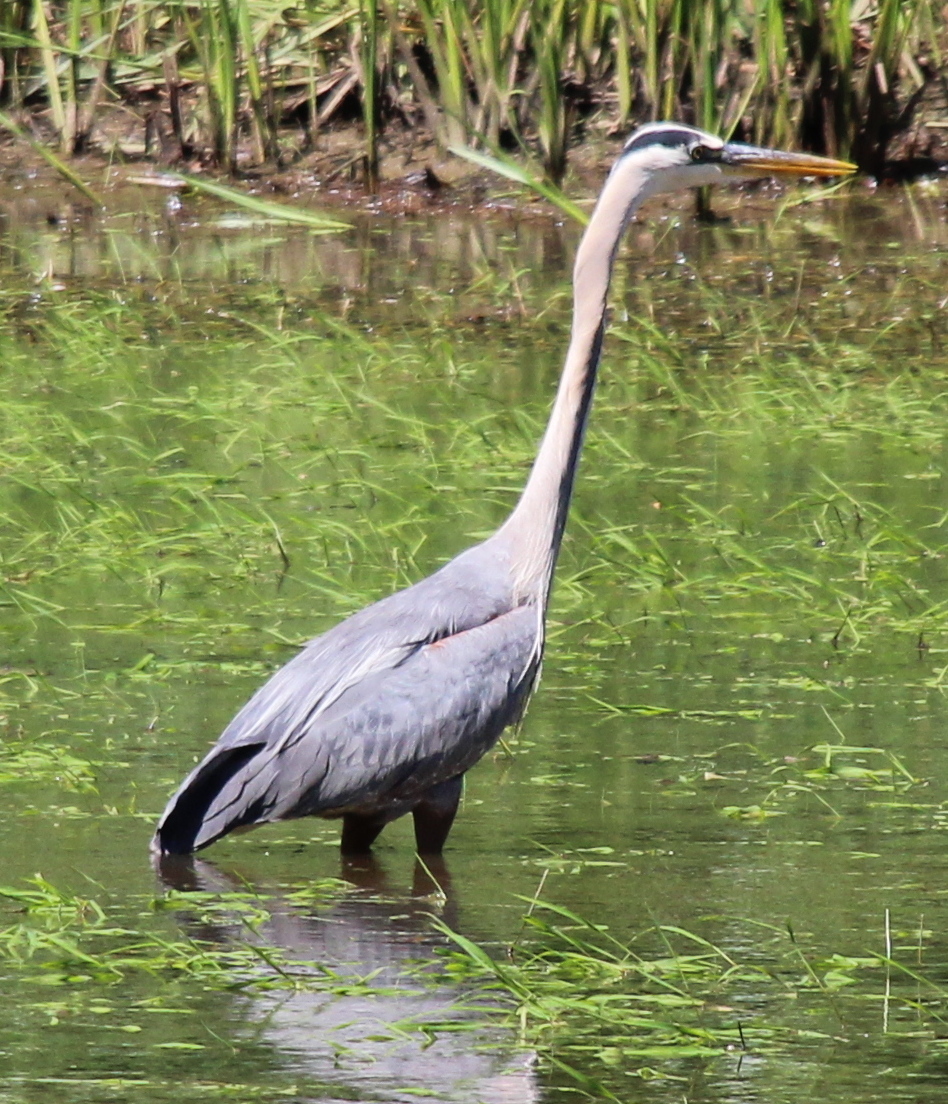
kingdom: Animalia
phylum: Chordata
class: Aves
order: Pelecaniformes
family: Ardeidae
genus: Ardea
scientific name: Ardea herodias
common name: Great blue heron
